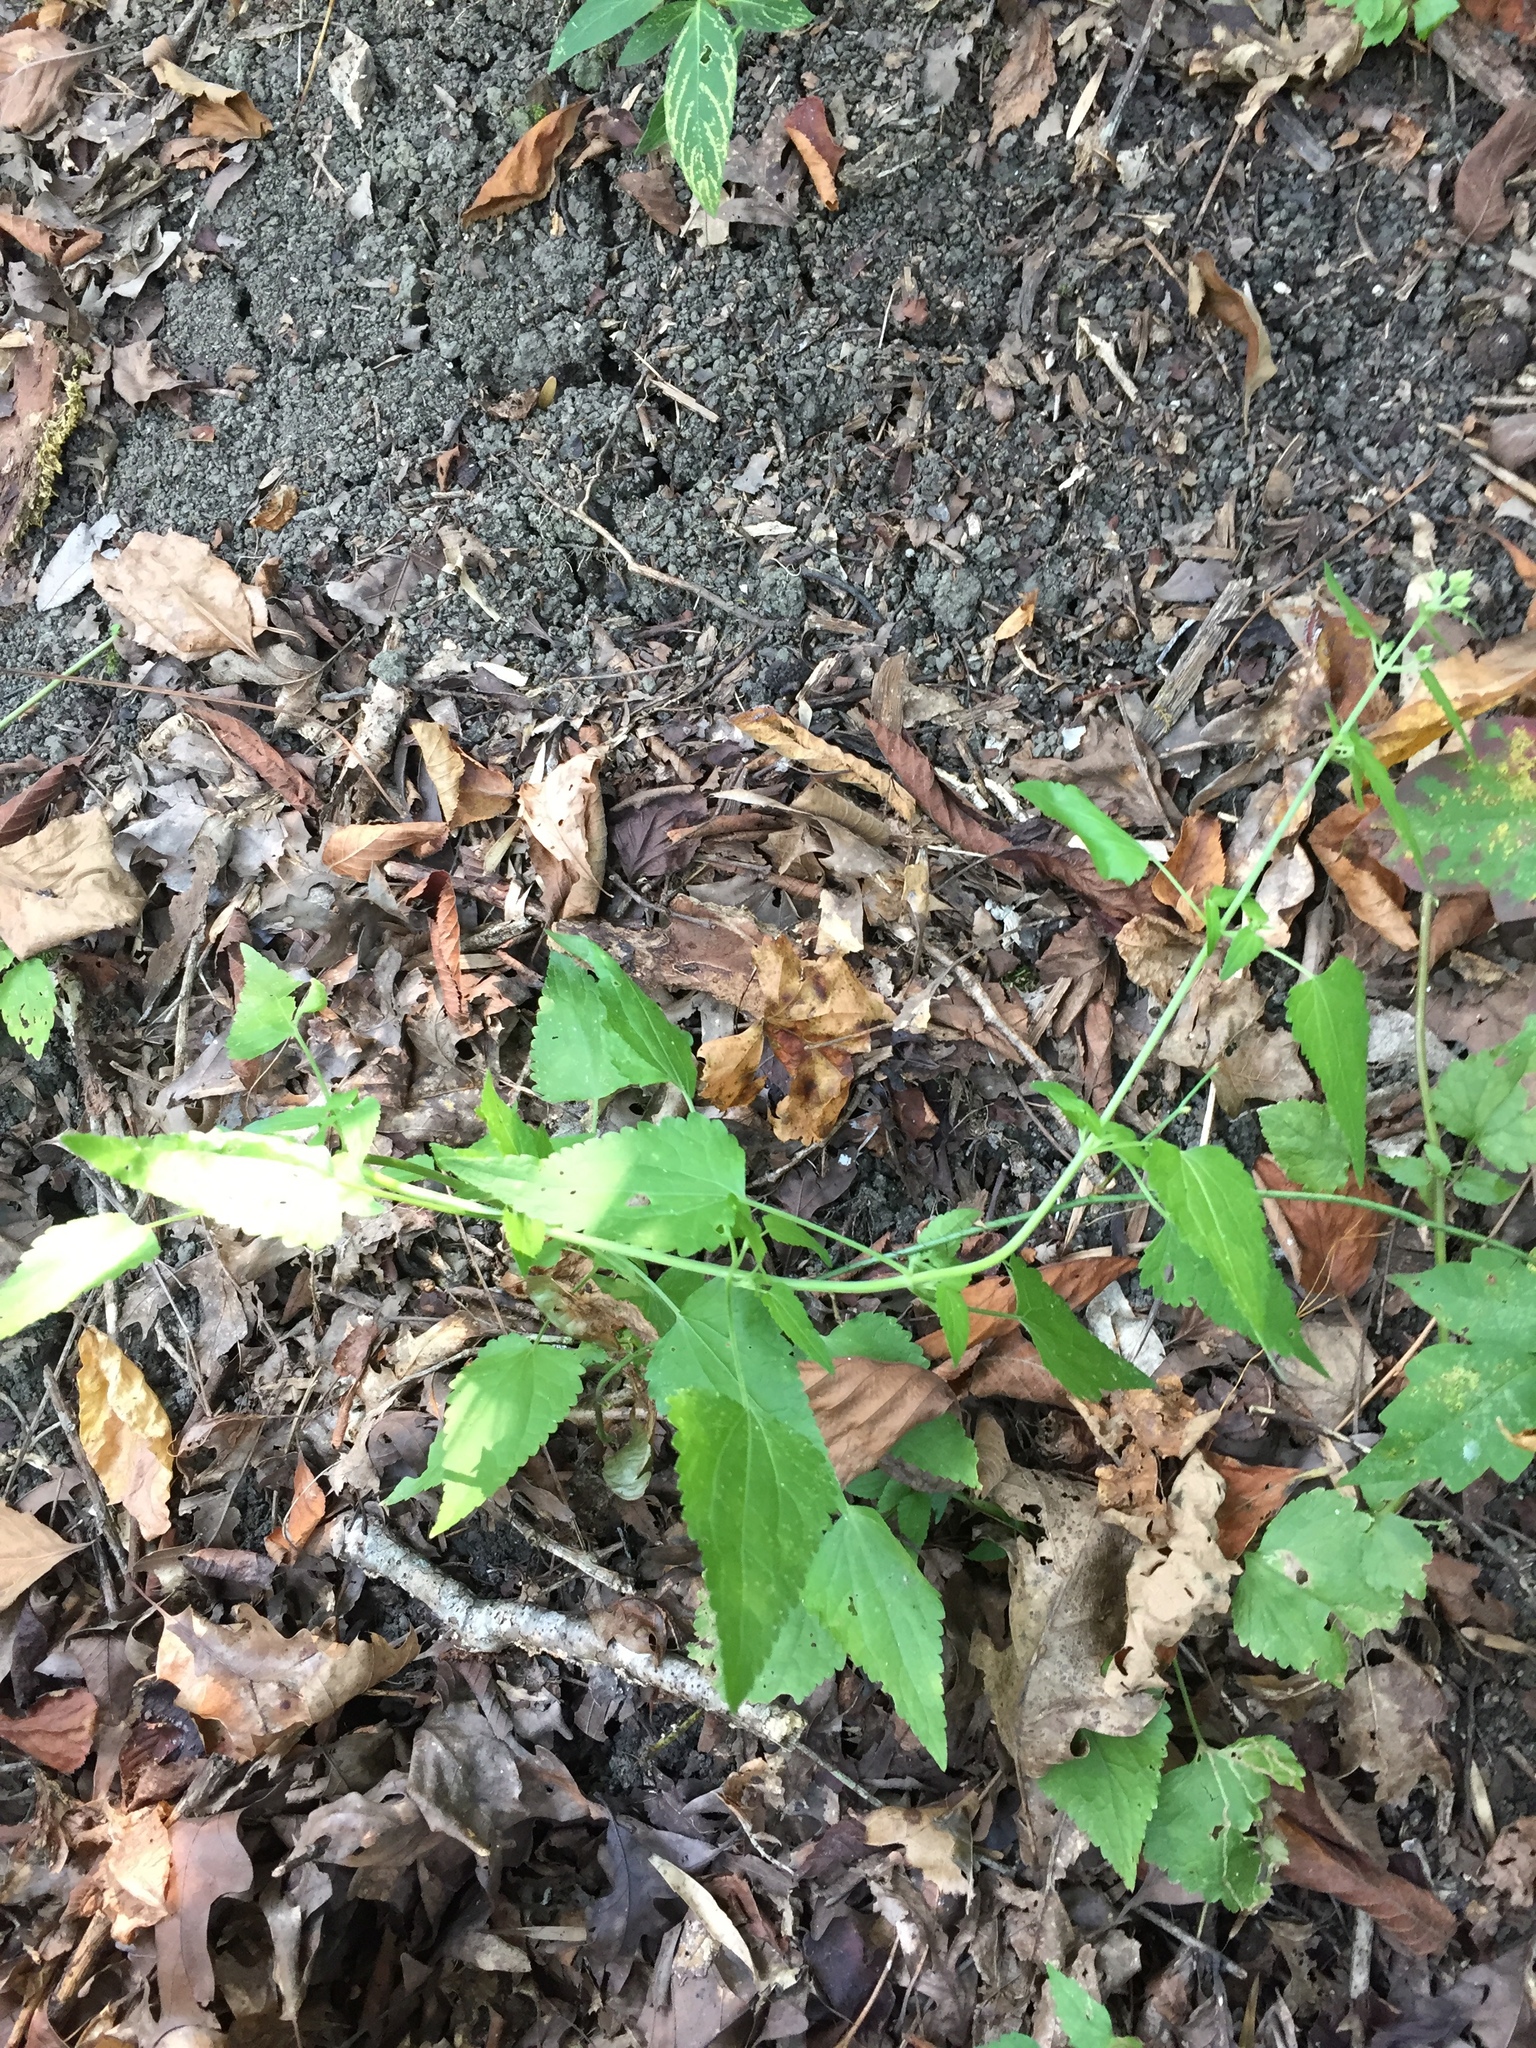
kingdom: Plantae
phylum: Tracheophyta
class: Magnoliopsida
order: Asterales
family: Asteraceae
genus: Fleischmannia
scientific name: Fleischmannia incarnata
